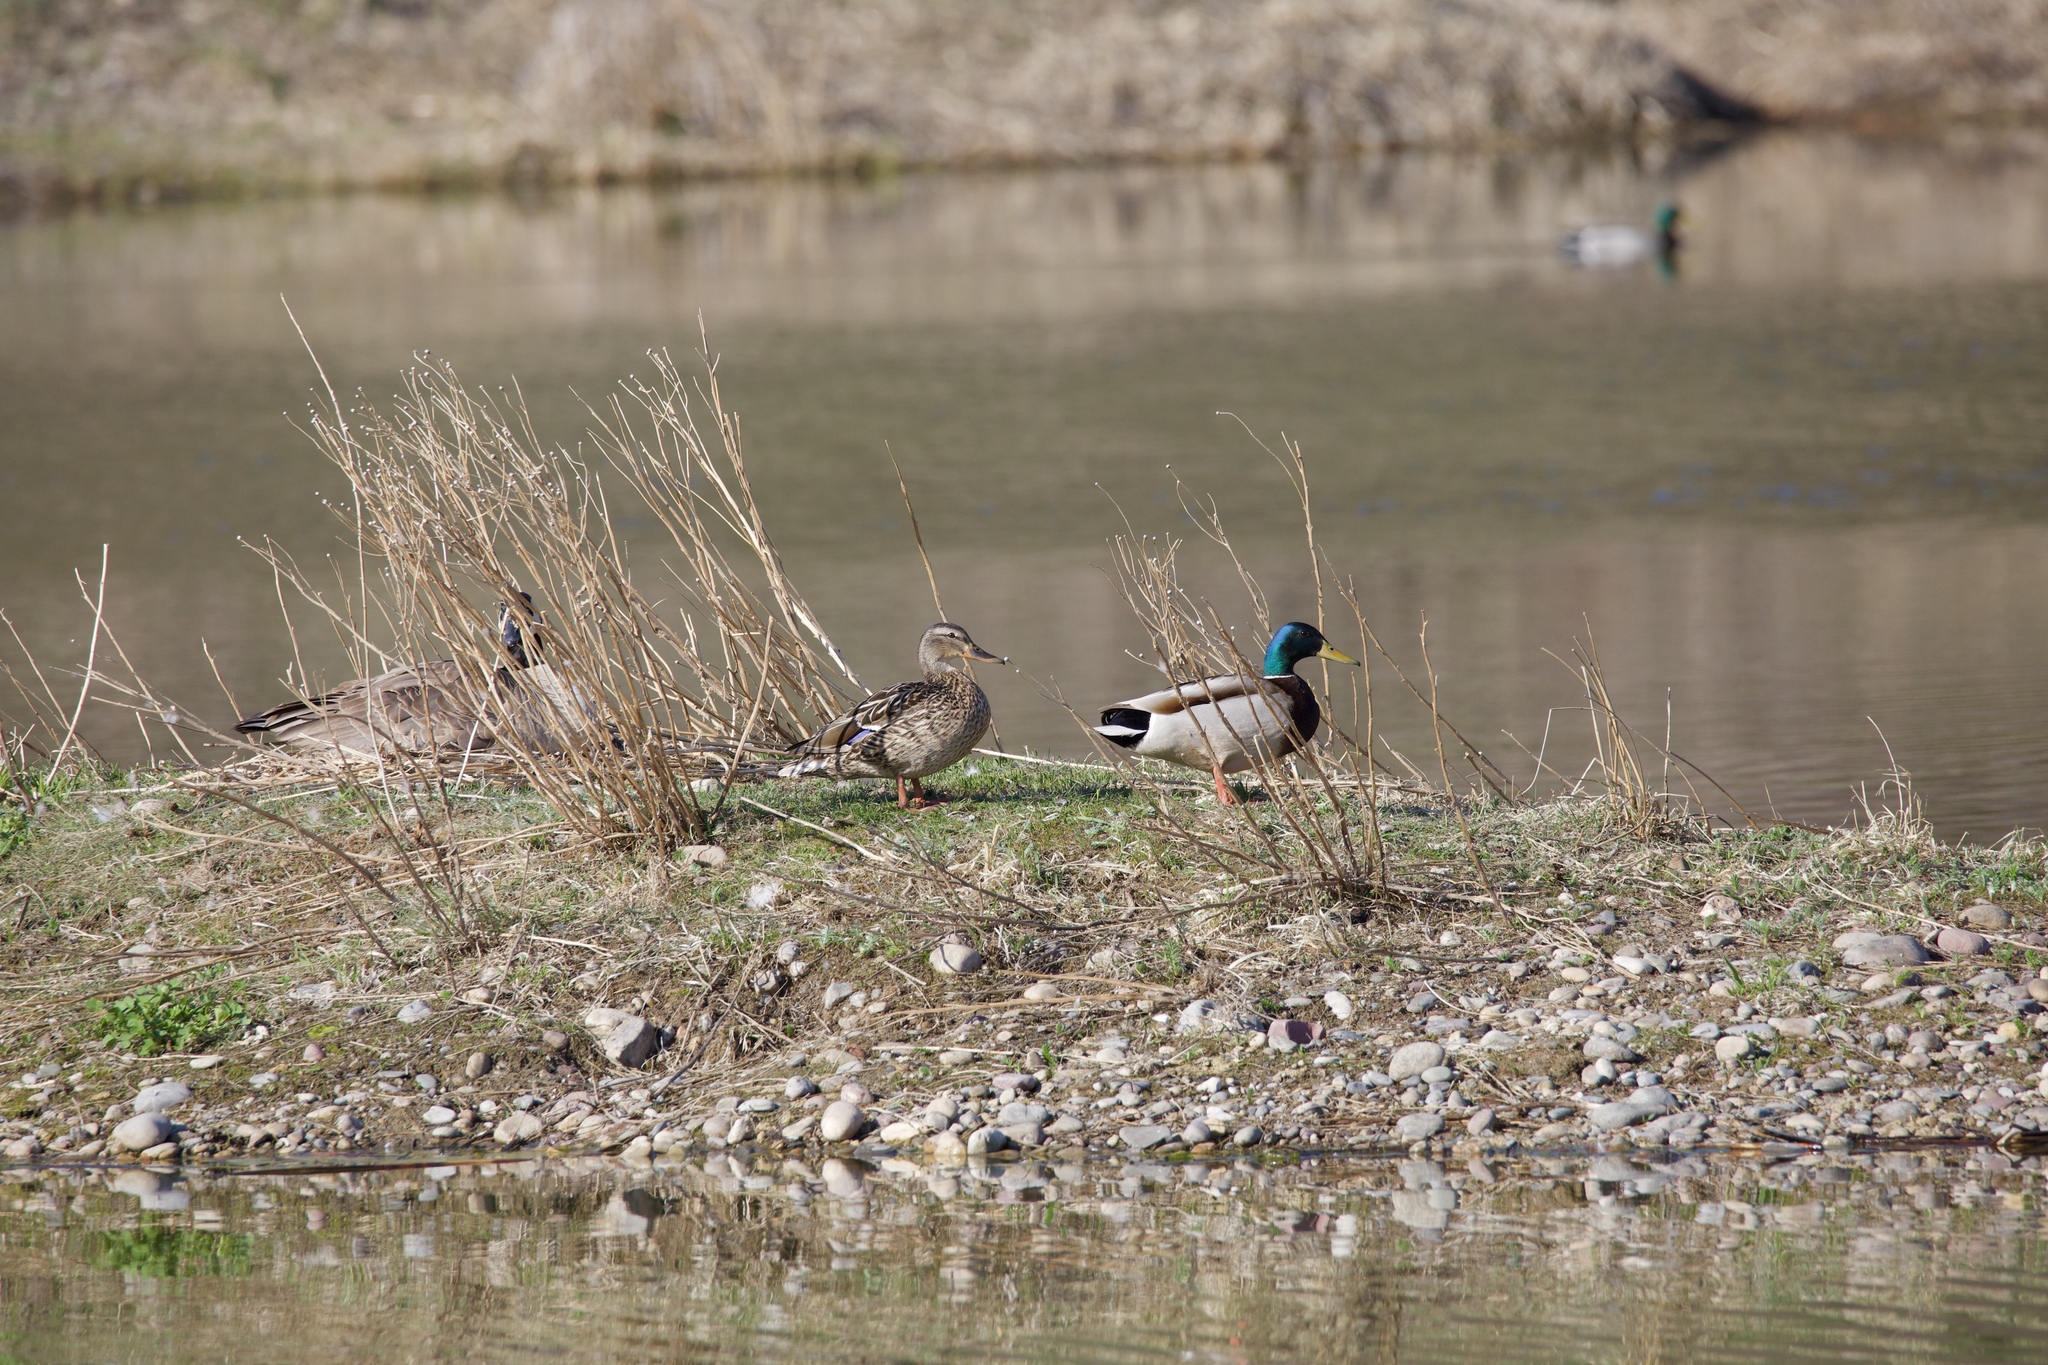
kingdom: Animalia
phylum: Chordata
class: Aves
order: Anseriformes
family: Anatidae
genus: Anas
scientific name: Anas platyrhynchos
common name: Mallard
